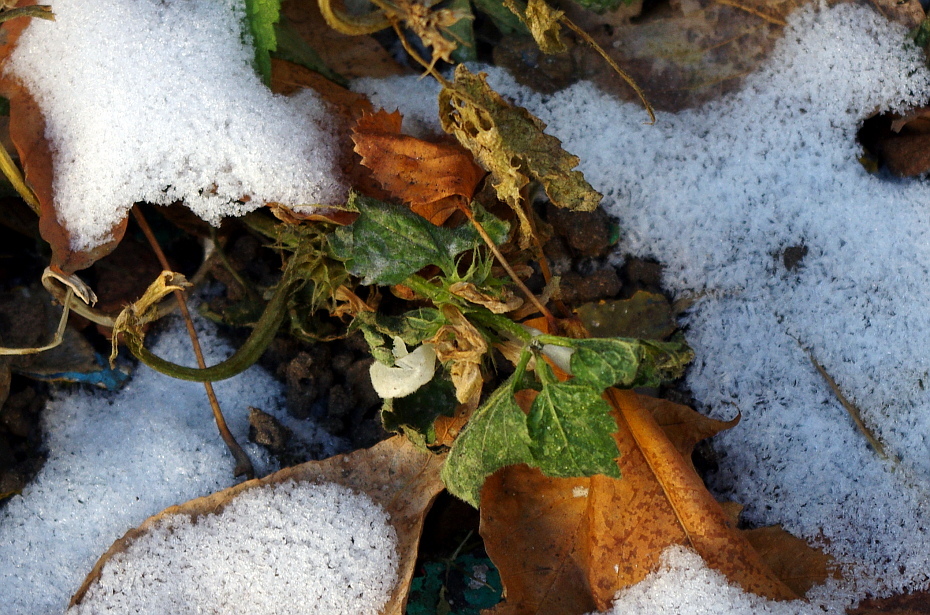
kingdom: Plantae
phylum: Tracheophyta
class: Magnoliopsida
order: Lamiales
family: Lamiaceae
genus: Lamium
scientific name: Lamium album
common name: White dead-nettle
